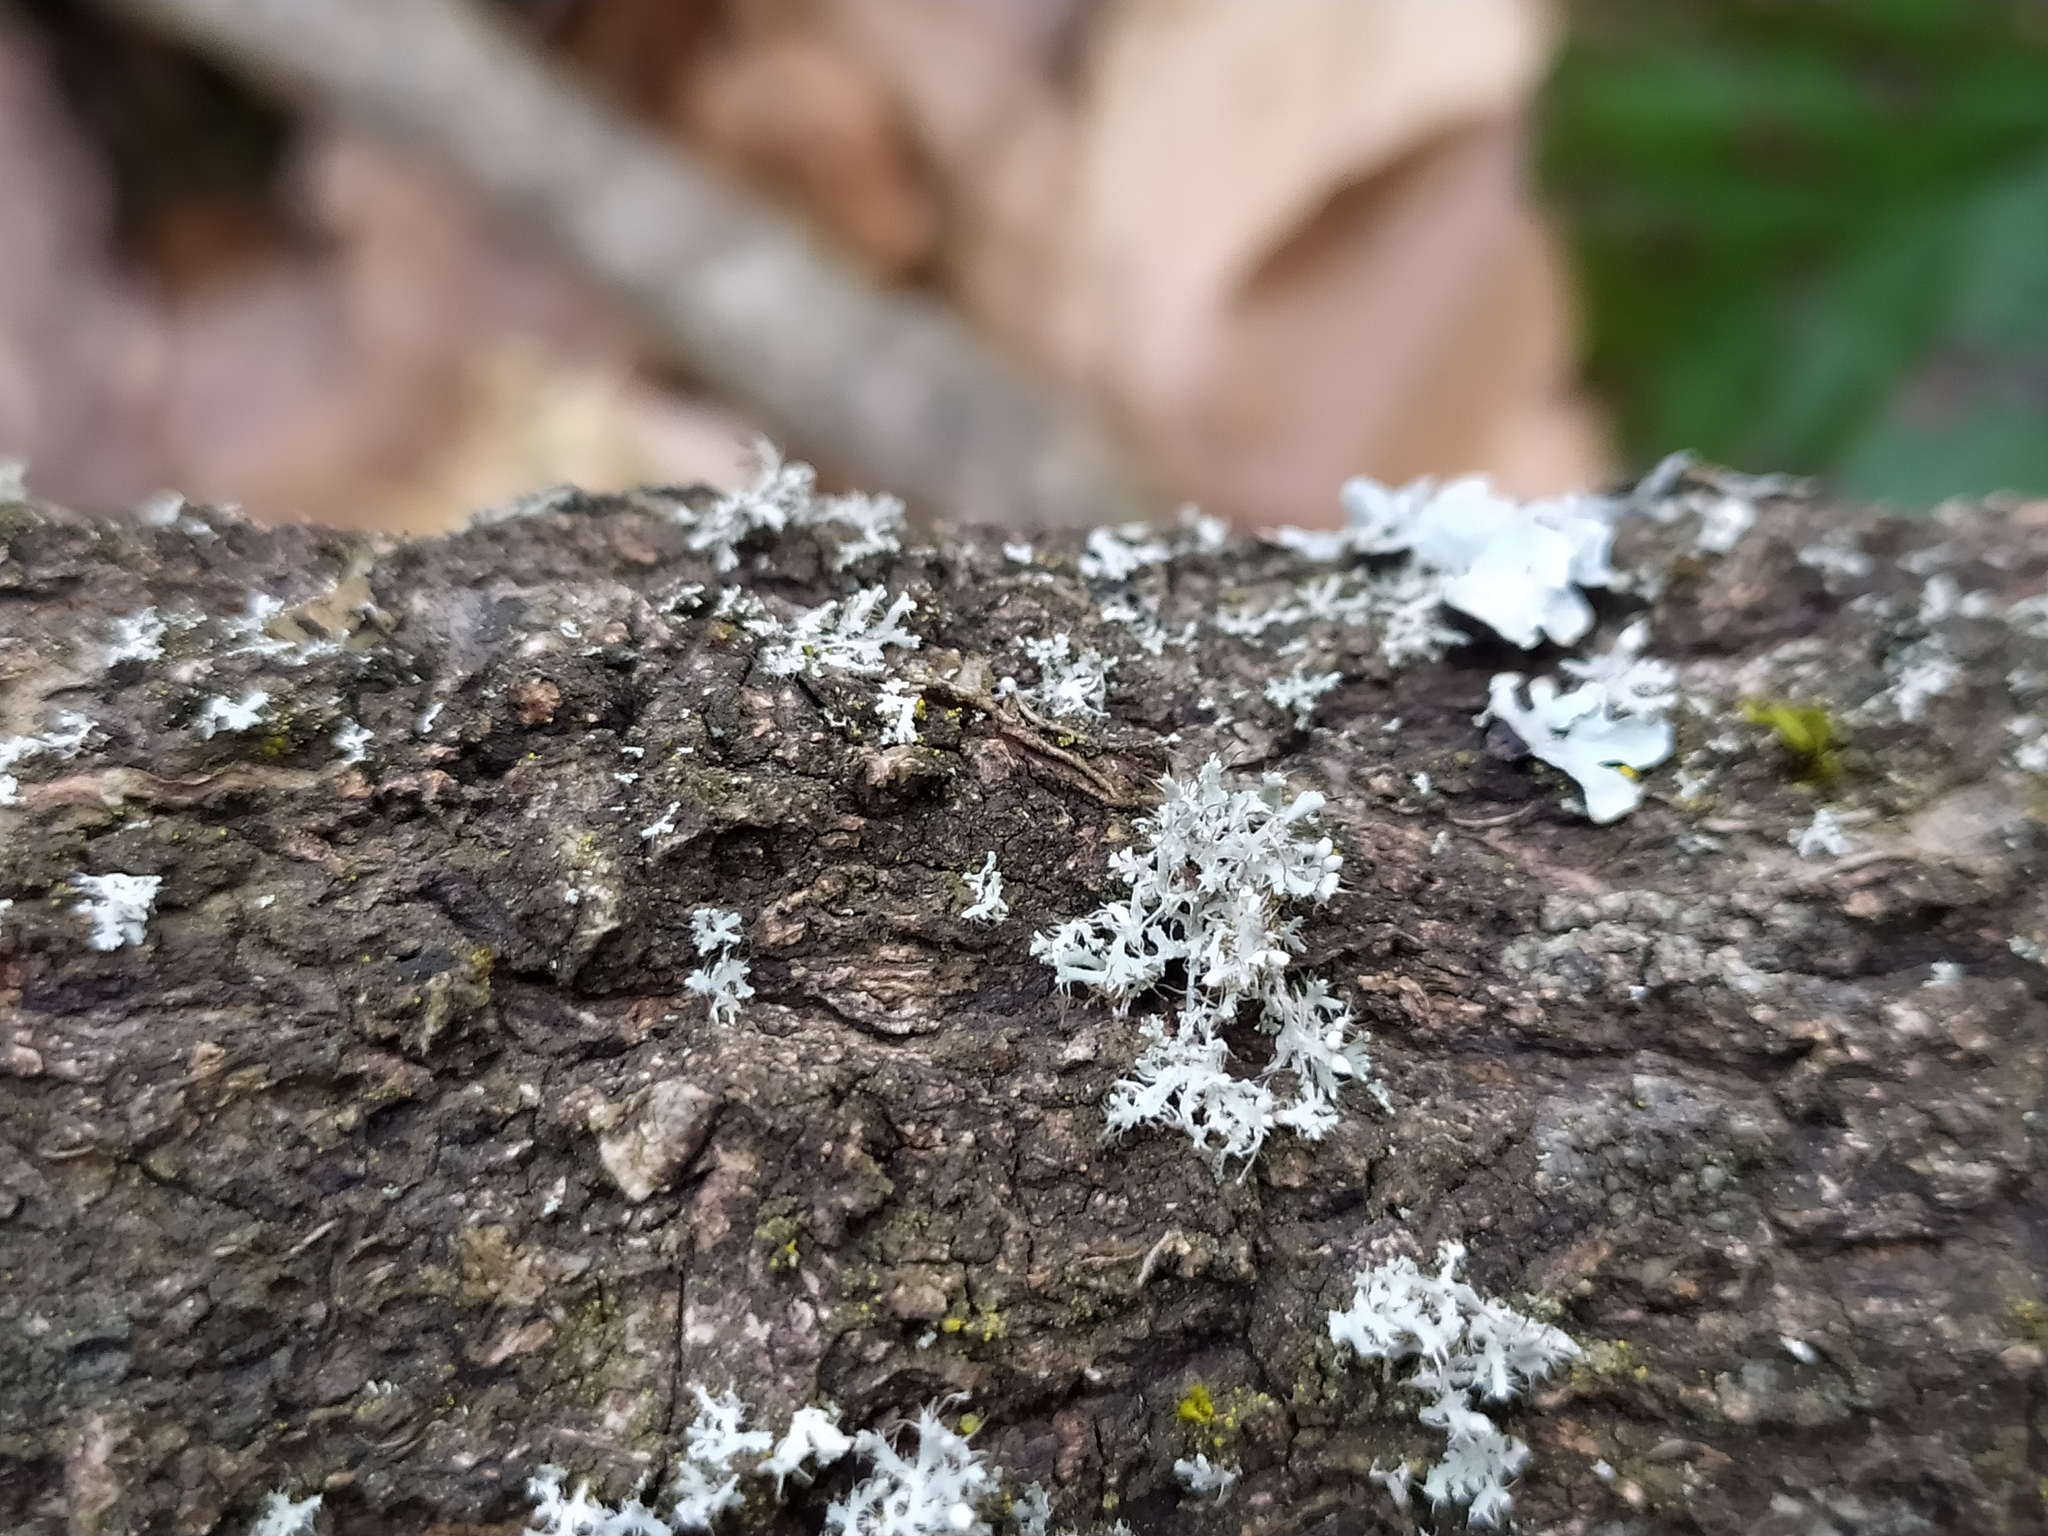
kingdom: Fungi
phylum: Ascomycota
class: Lecanoromycetes
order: Caliciales
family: Physciaceae
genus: Physcia
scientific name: Physcia adscendens
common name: Hooded rosette lichen
